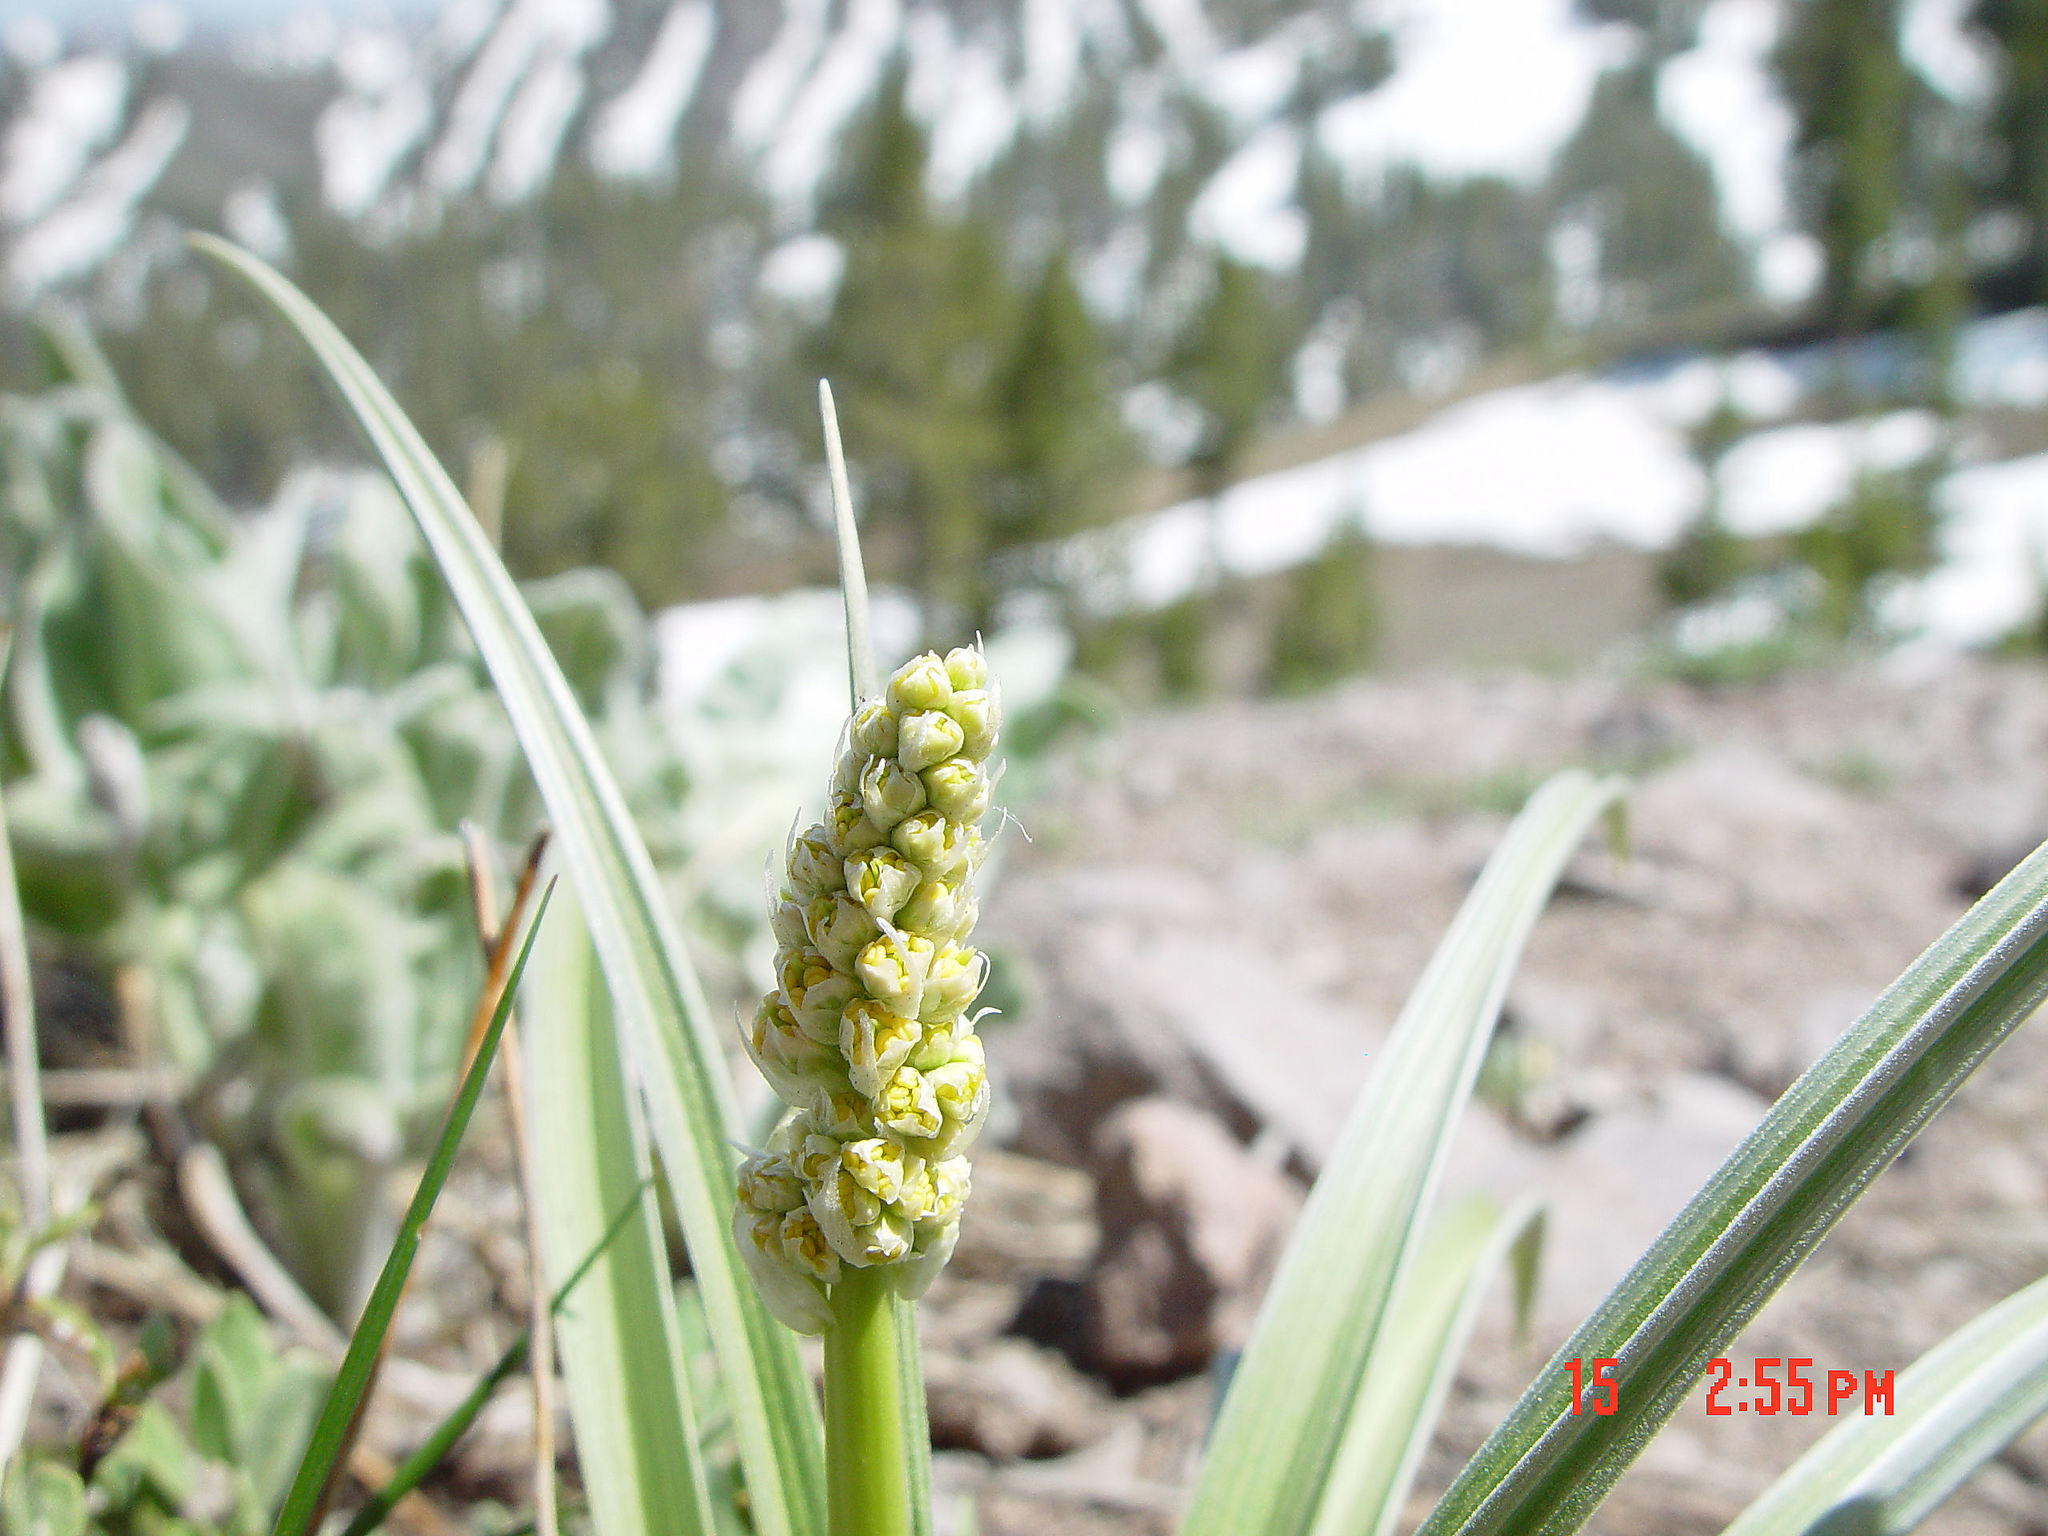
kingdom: Plantae
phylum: Tracheophyta
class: Liliopsida
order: Liliales
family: Melanthiaceae
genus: Toxicoscordion
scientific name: Toxicoscordion paniculatum
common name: Foothill death camas
